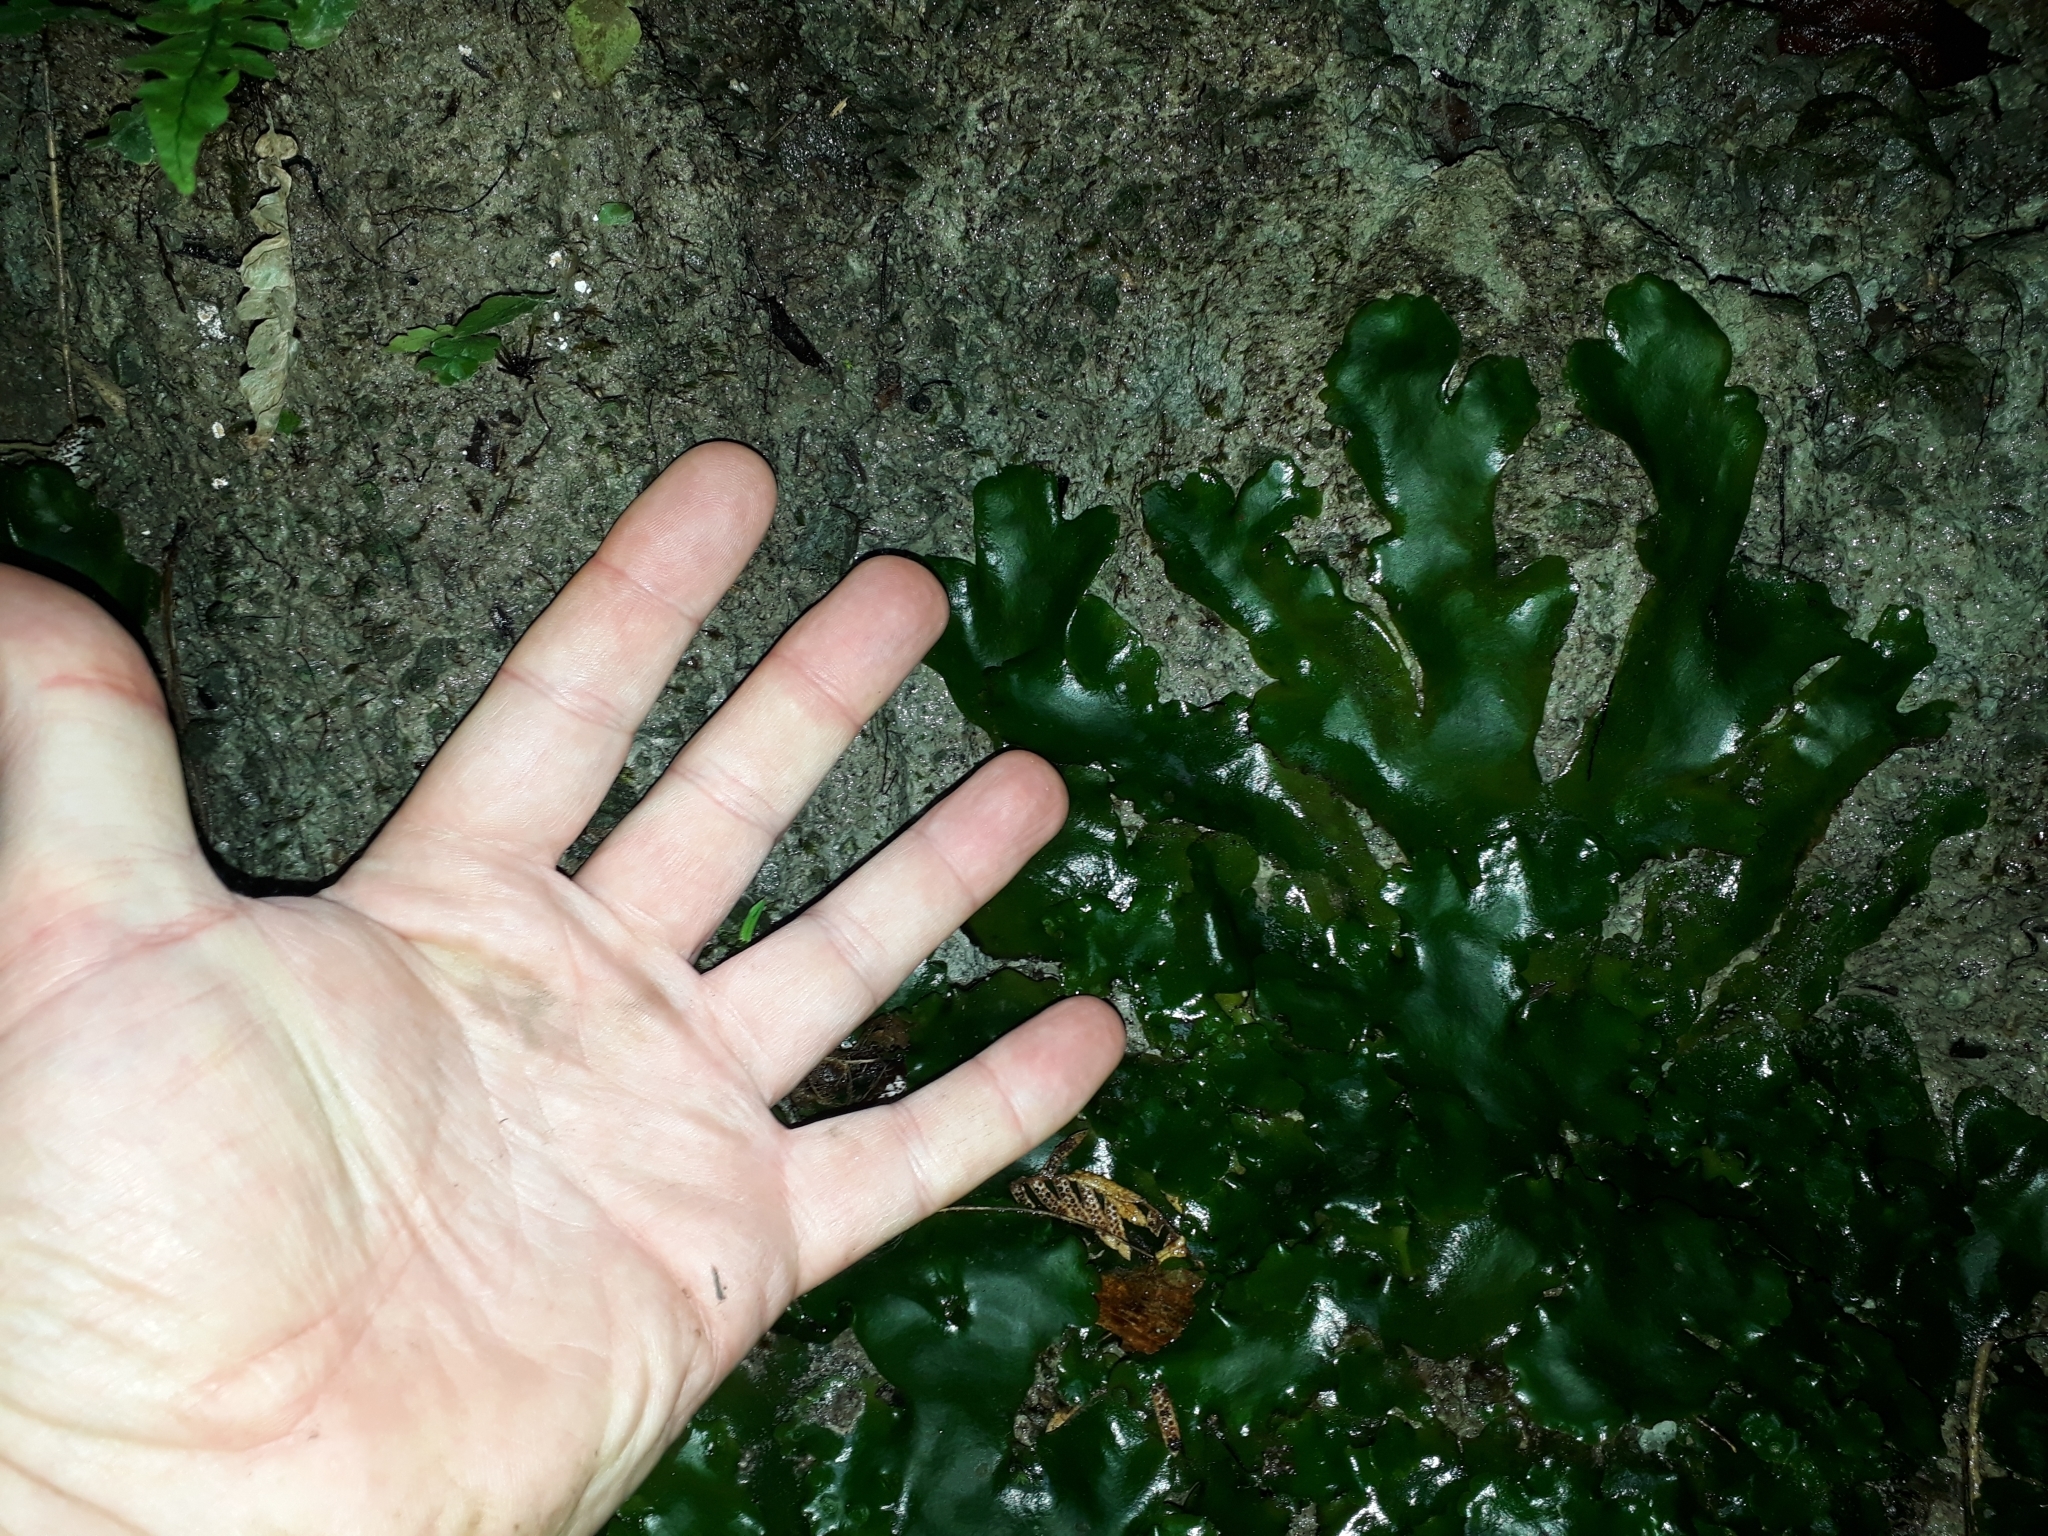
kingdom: Plantae
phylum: Marchantiophyta
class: Marchantiopsida
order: Marchantiales
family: Monocleaceae
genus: Monoclea
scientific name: Monoclea forsteri
